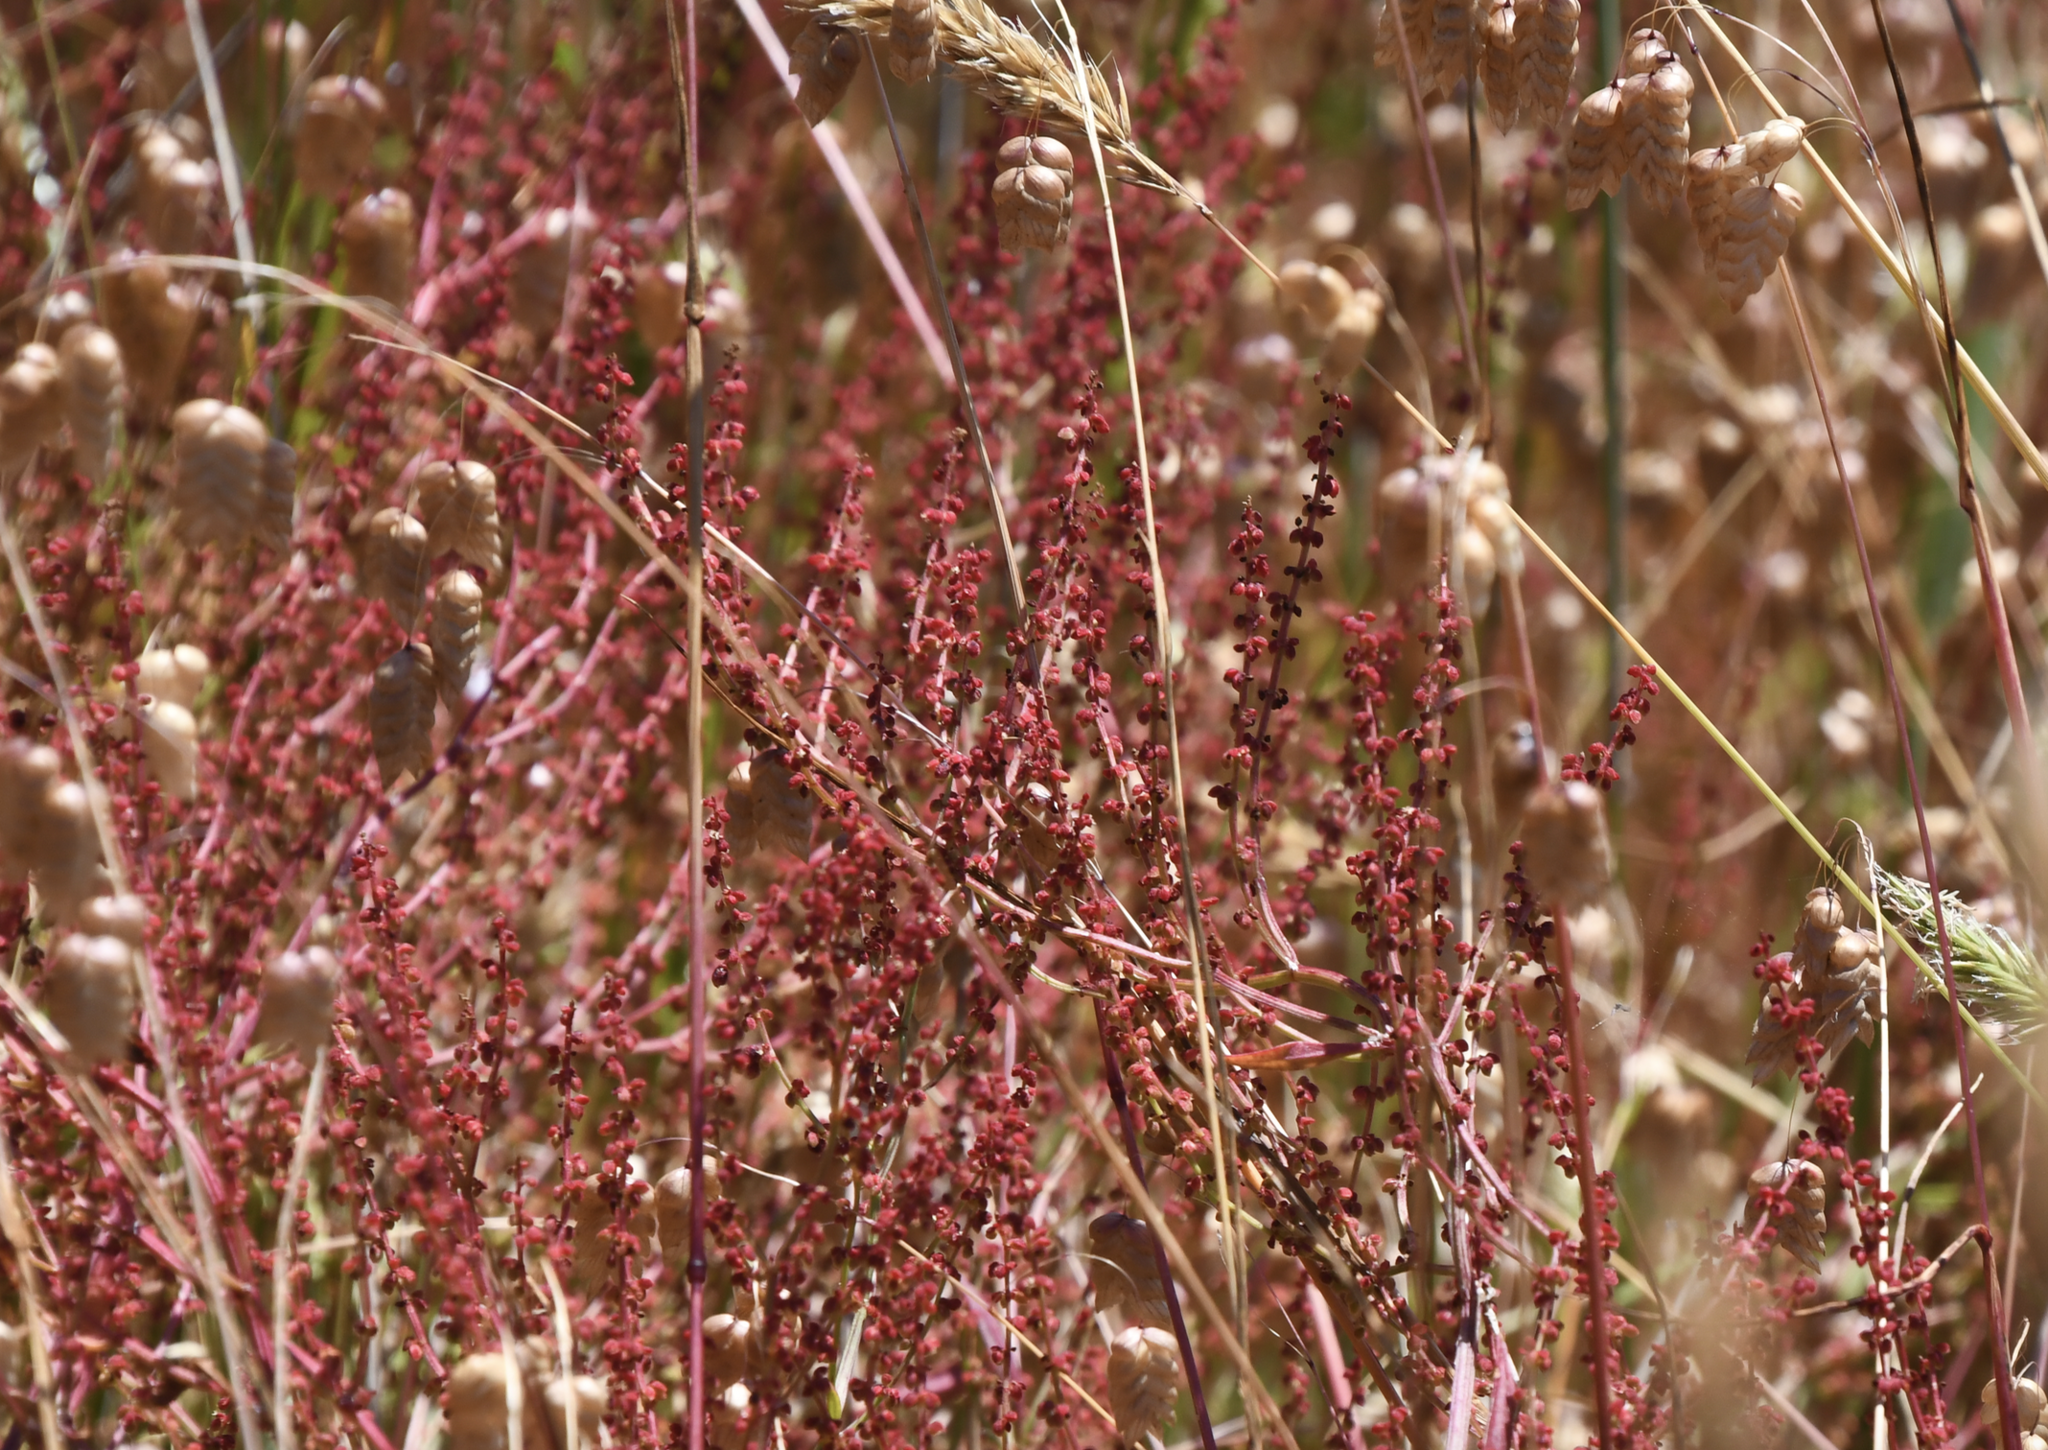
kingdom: Plantae
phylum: Tracheophyta
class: Magnoliopsida
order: Caryophyllales
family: Polygonaceae
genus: Rumex
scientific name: Rumex acetosella
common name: Common sheep sorrel
